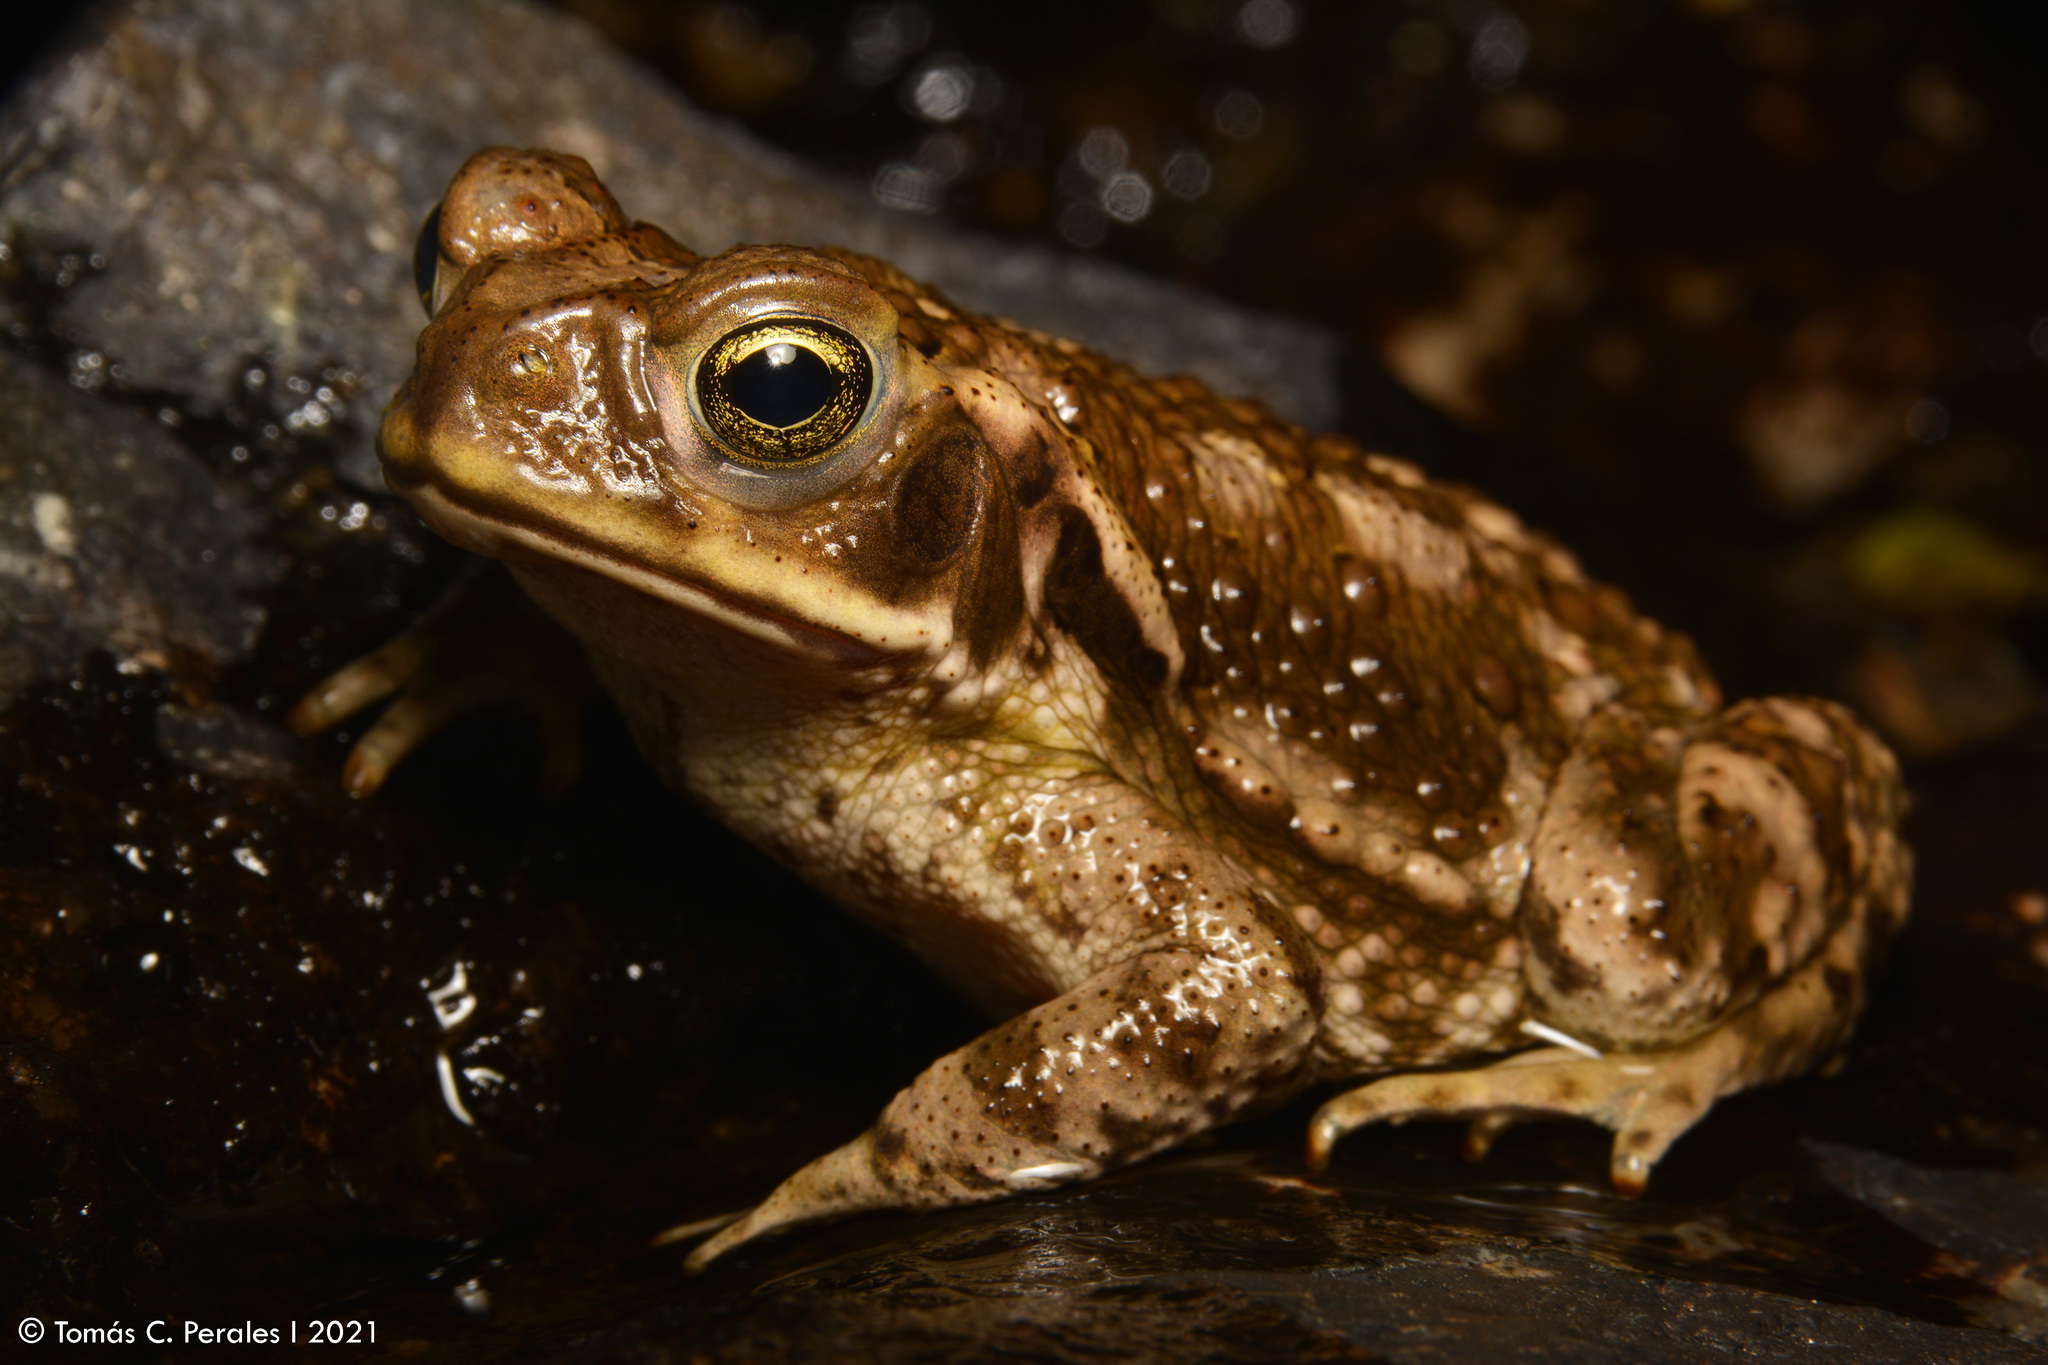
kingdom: Animalia
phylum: Chordata
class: Amphibia
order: Anura
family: Bufonidae
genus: Rhinella
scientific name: Rhinella arenarum
